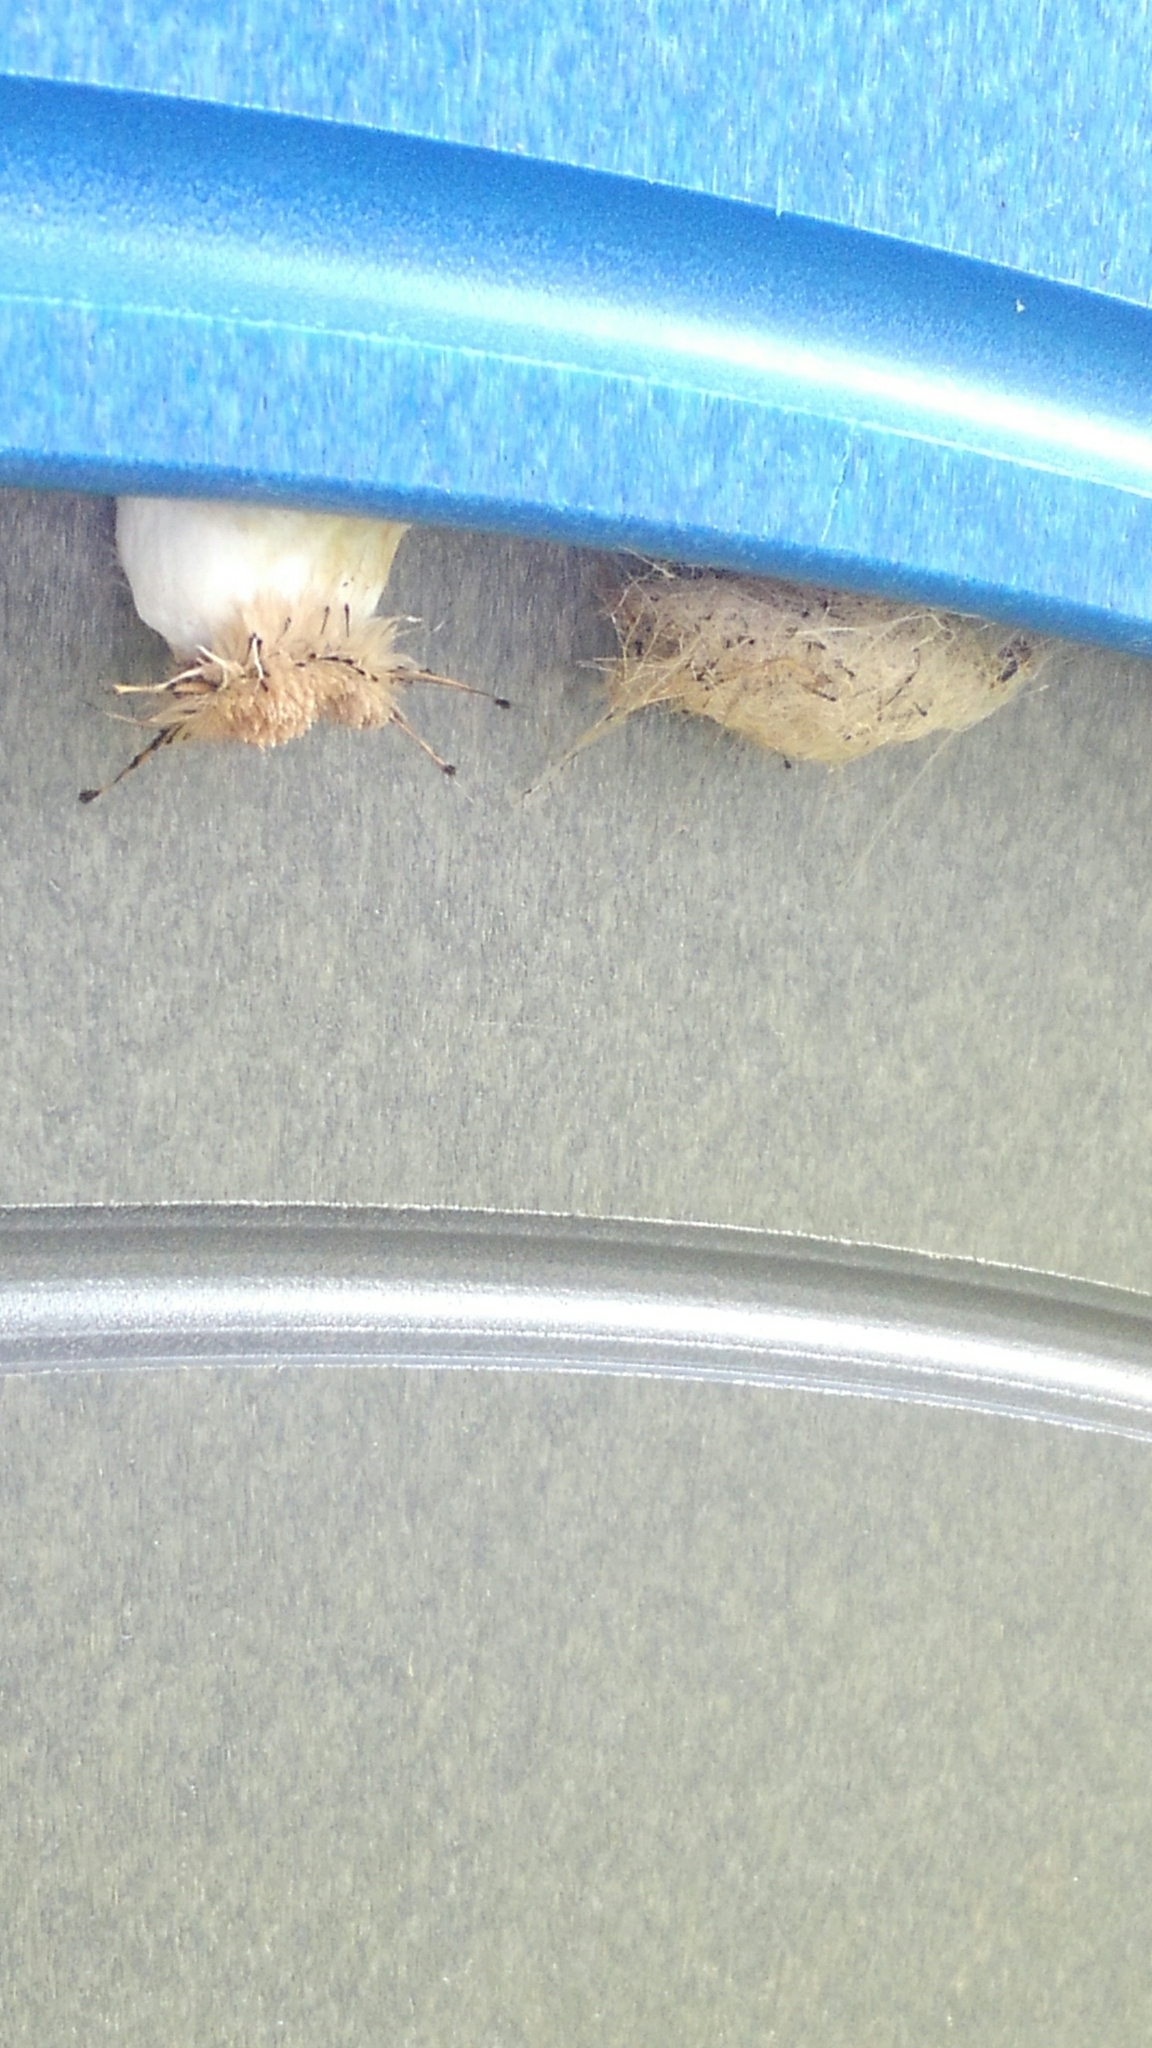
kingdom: Animalia
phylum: Arthropoda
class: Insecta
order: Lepidoptera
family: Erebidae
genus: Dasychira
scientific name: Dasychira meridionalis
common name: Southern tussock moth
